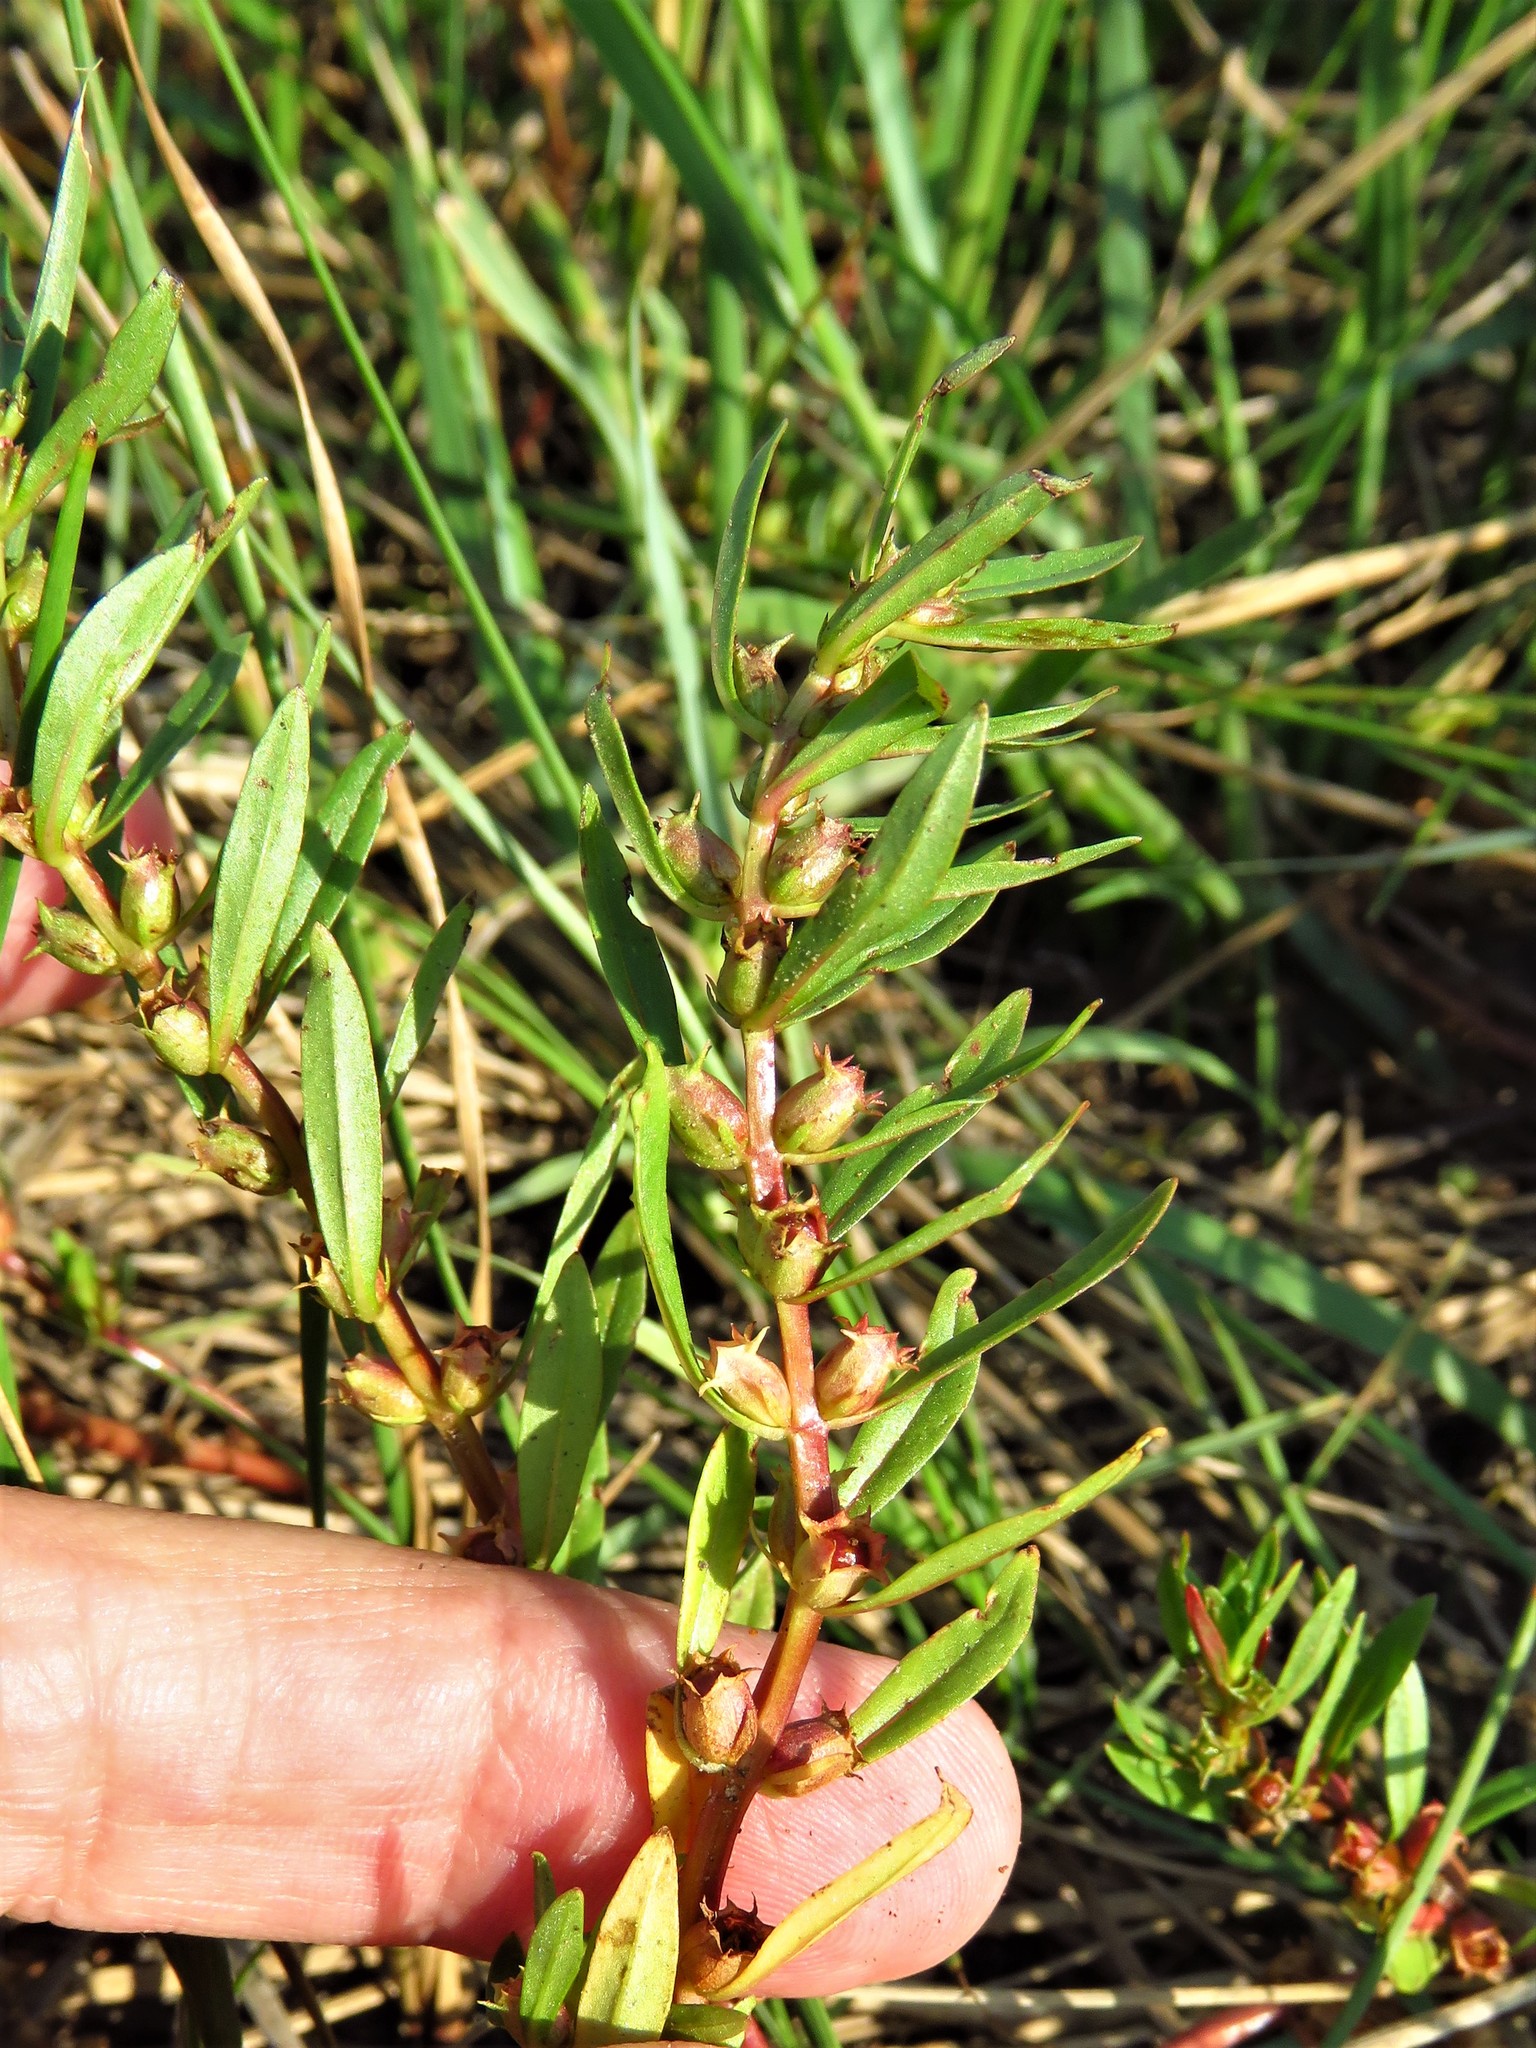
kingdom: Plantae
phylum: Tracheophyta
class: Magnoliopsida
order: Myrtales
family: Lythraceae
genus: Rotala
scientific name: Rotala ramosior
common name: Lowland rotala
